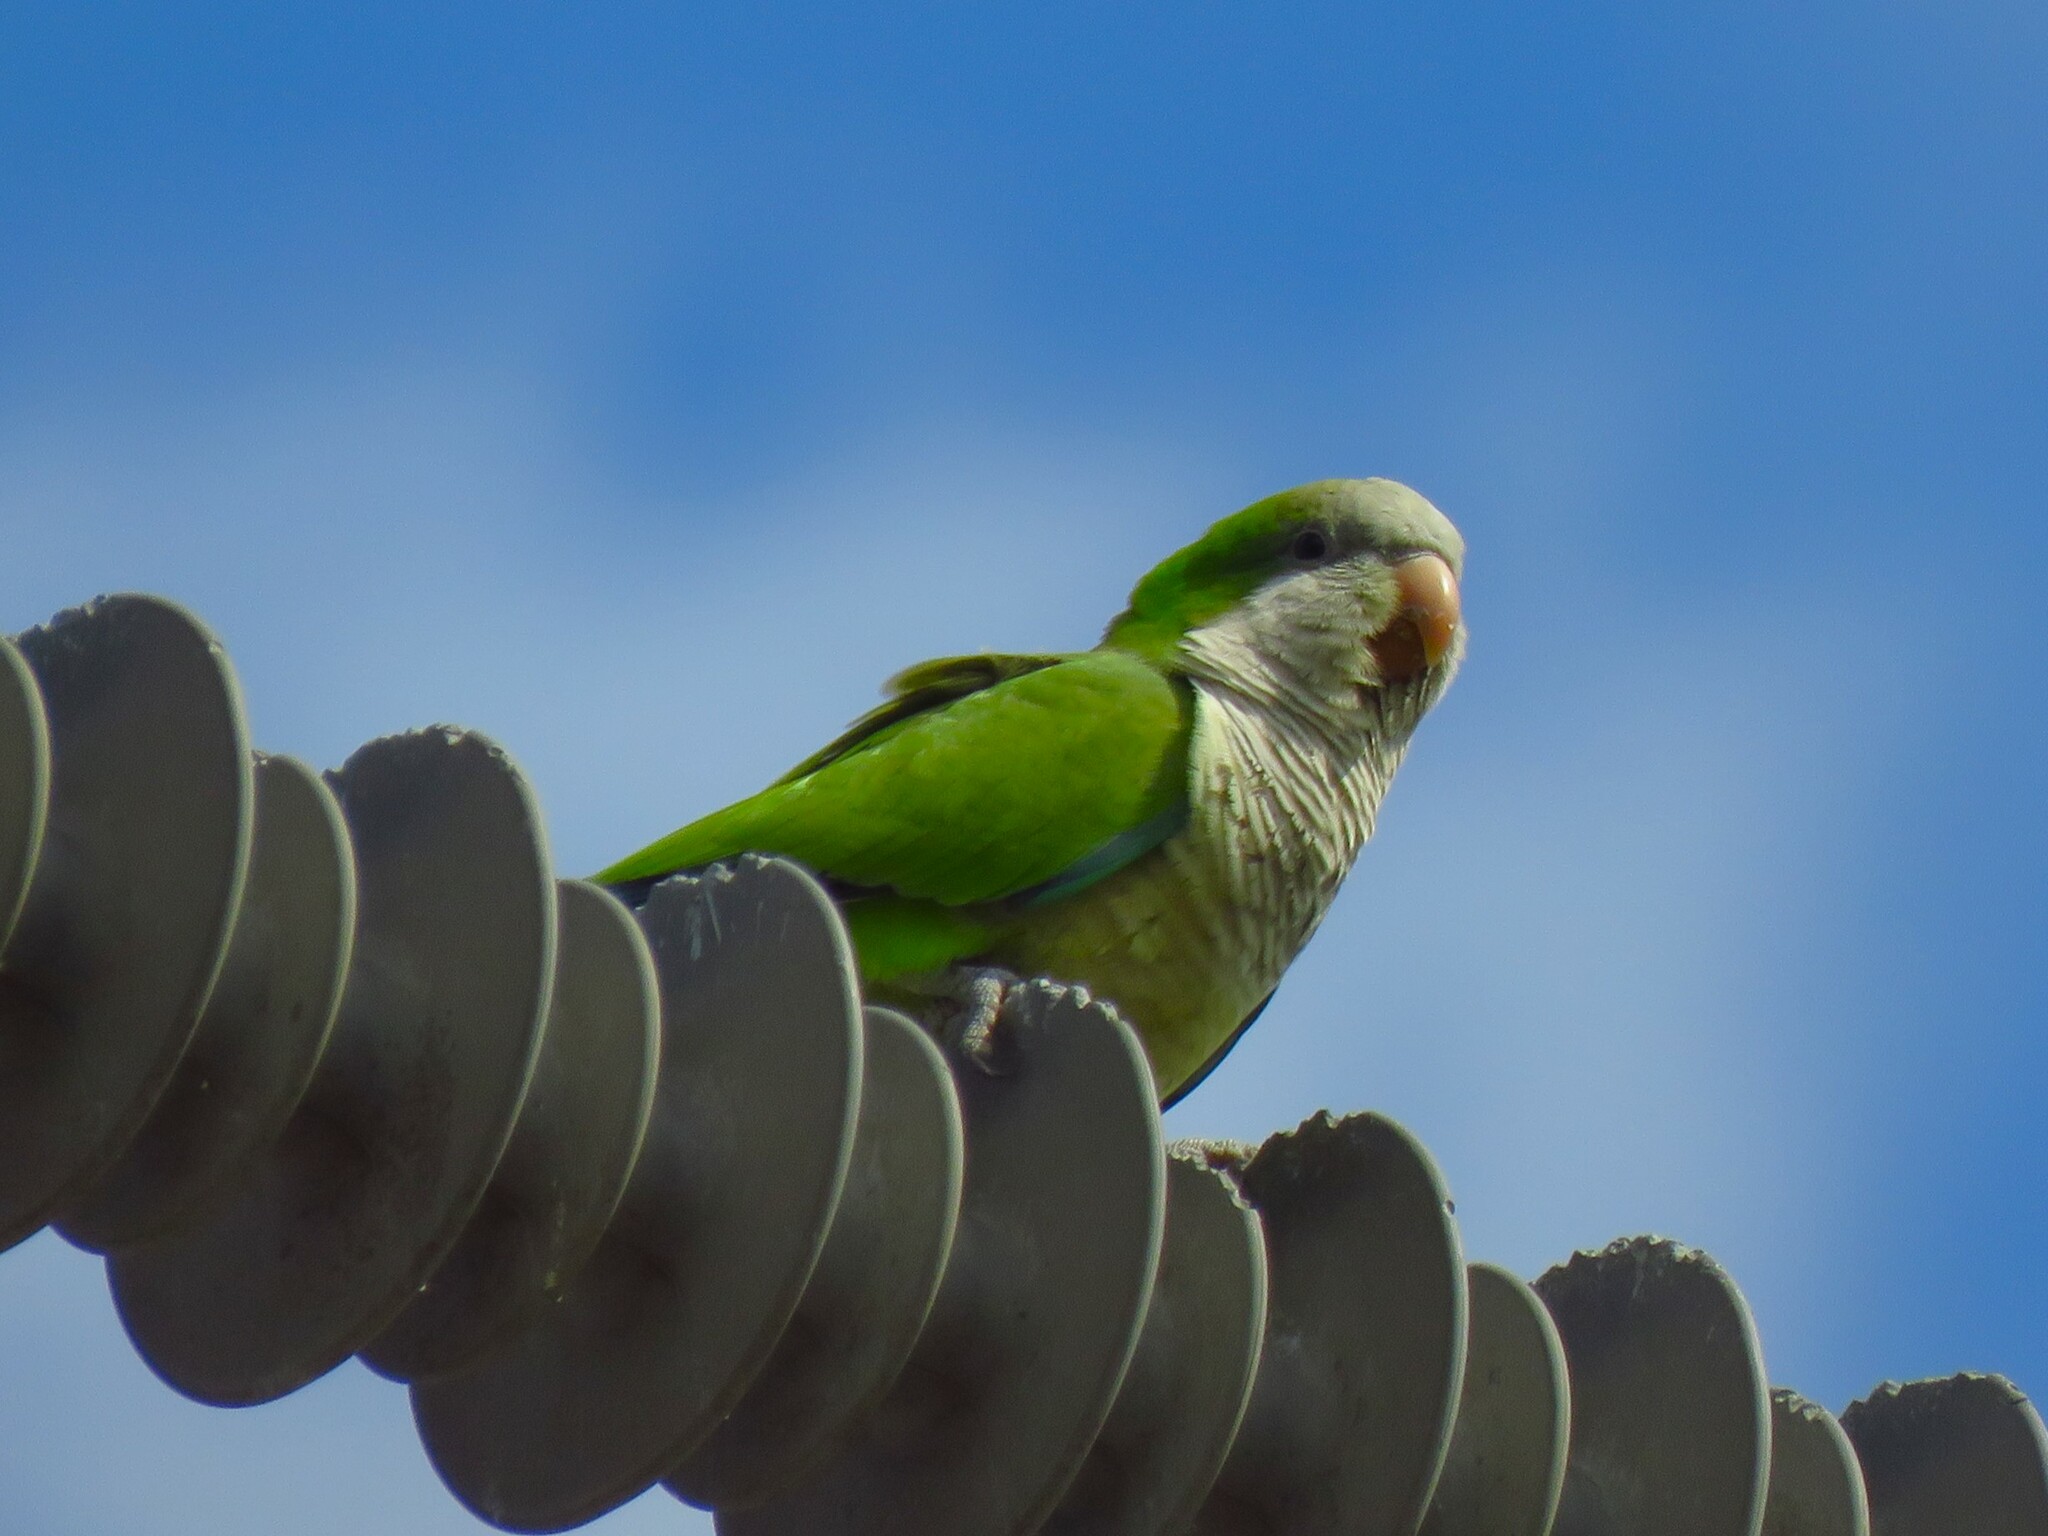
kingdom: Animalia
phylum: Chordata
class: Aves
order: Psittaciformes
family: Psittacidae
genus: Myiopsitta
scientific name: Myiopsitta monachus
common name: Monk parakeet
